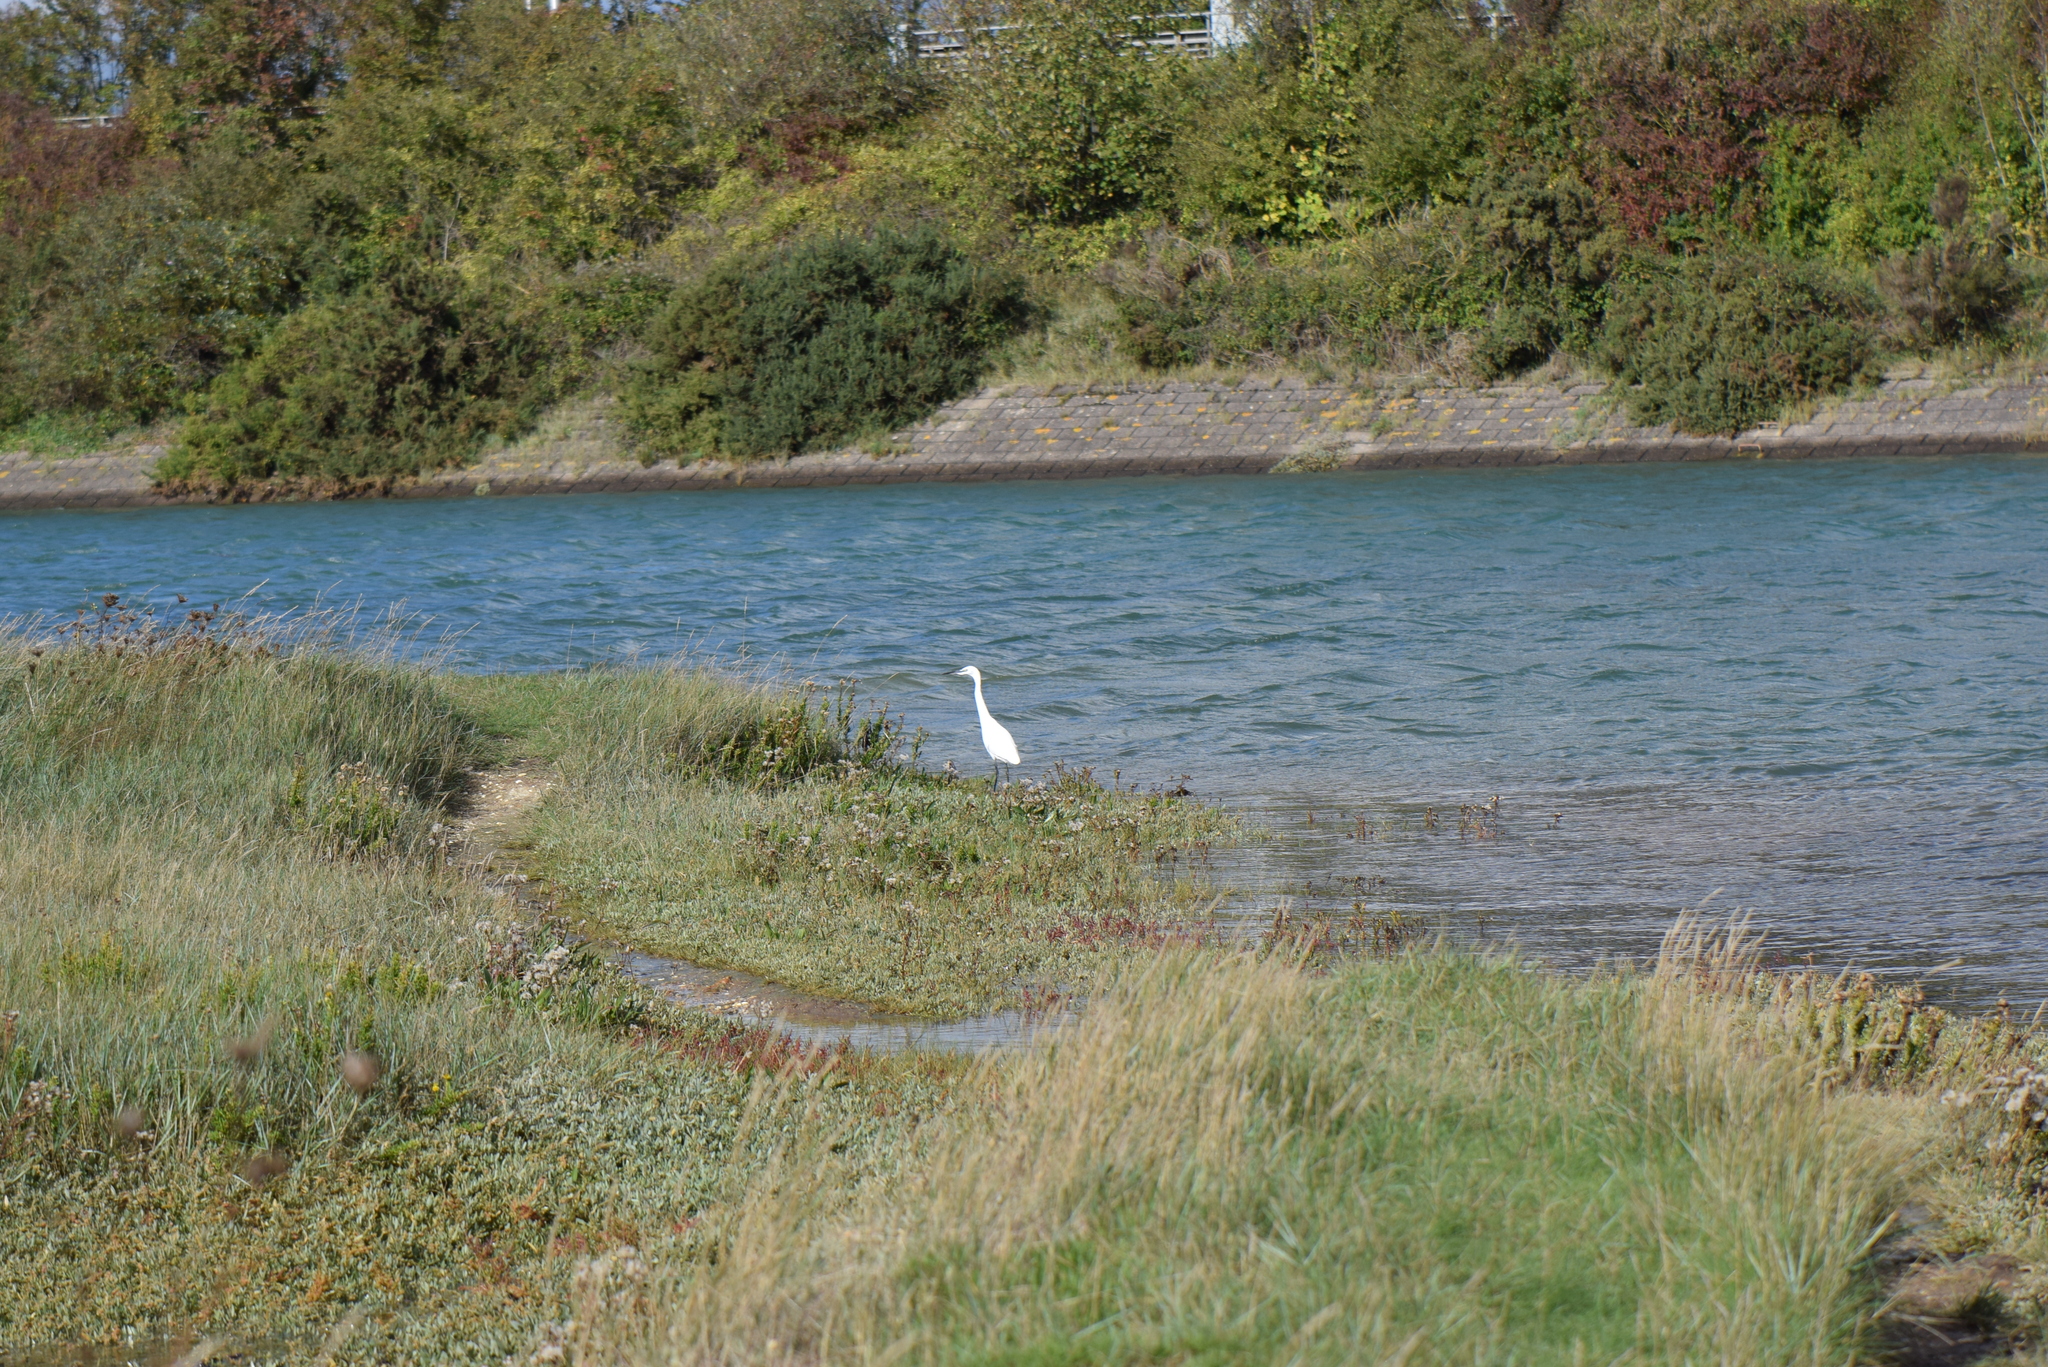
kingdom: Animalia
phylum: Chordata
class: Aves
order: Pelecaniformes
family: Ardeidae
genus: Egretta
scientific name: Egretta garzetta
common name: Little egret
